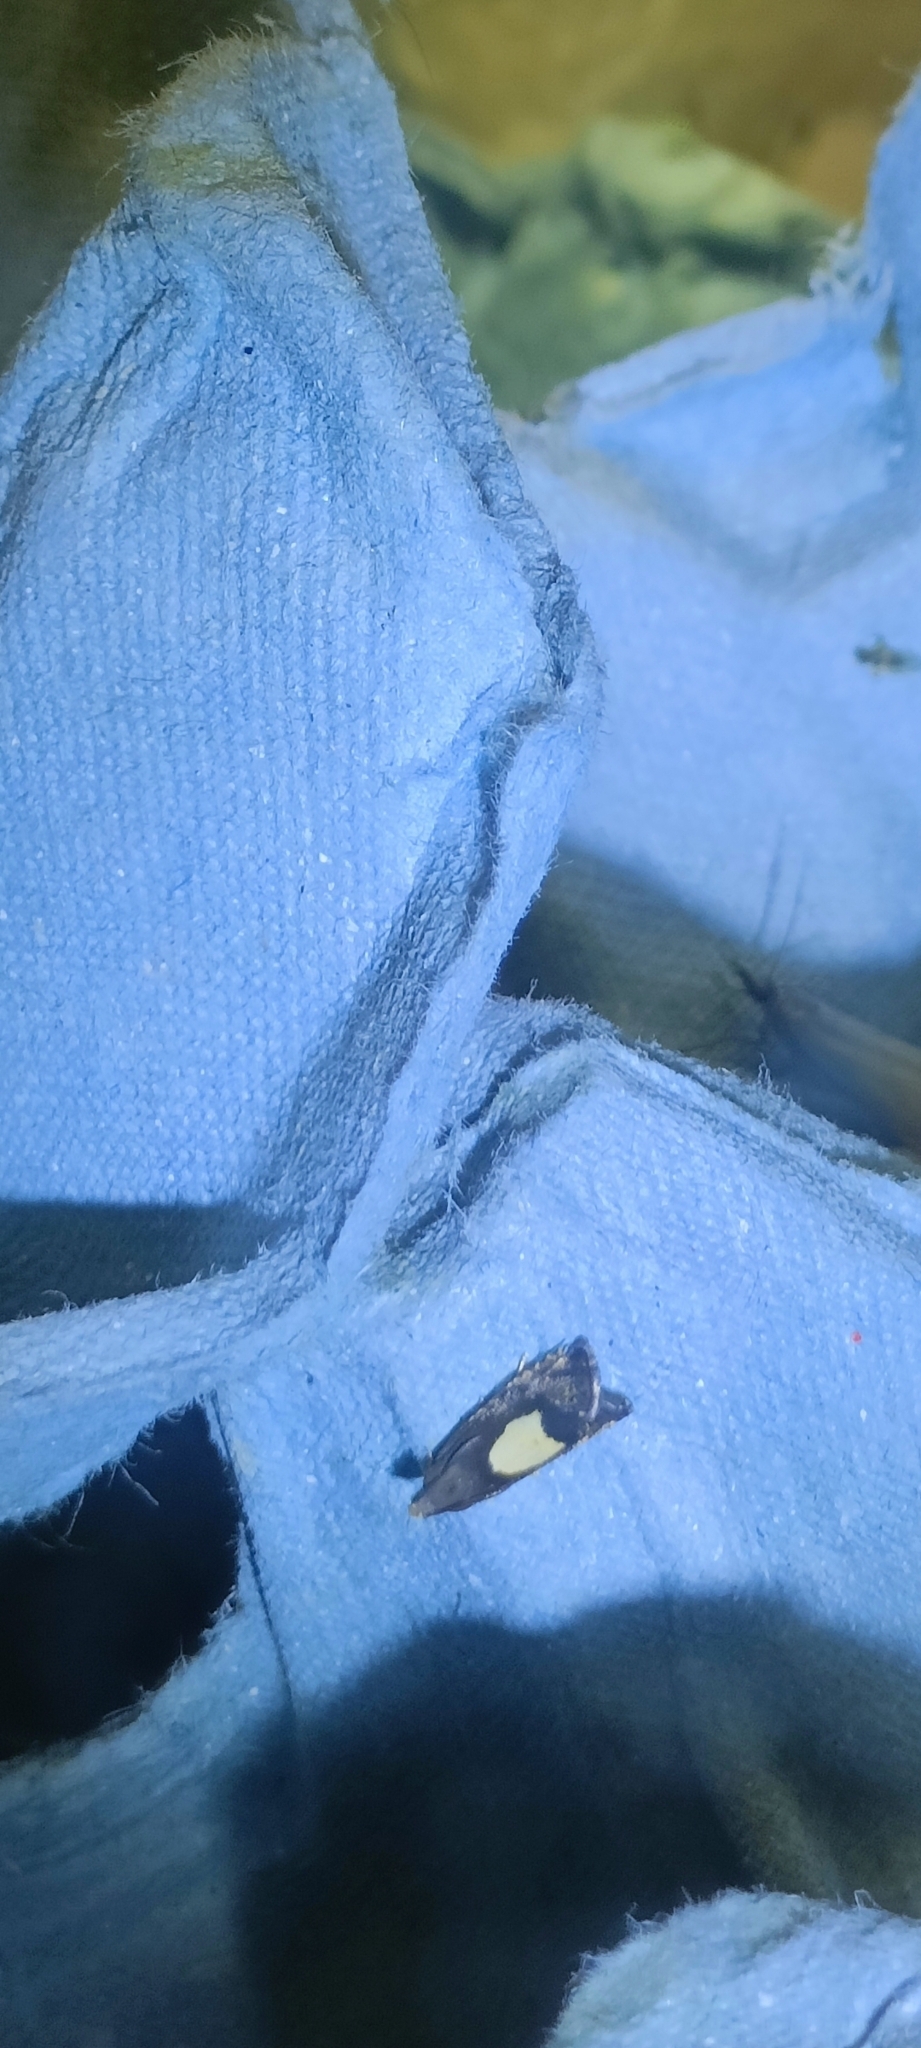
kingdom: Animalia
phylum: Arthropoda
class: Insecta
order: Lepidoptera
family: Tortricidae
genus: Pammene
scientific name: Pammene regiana
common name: Regal piercer
